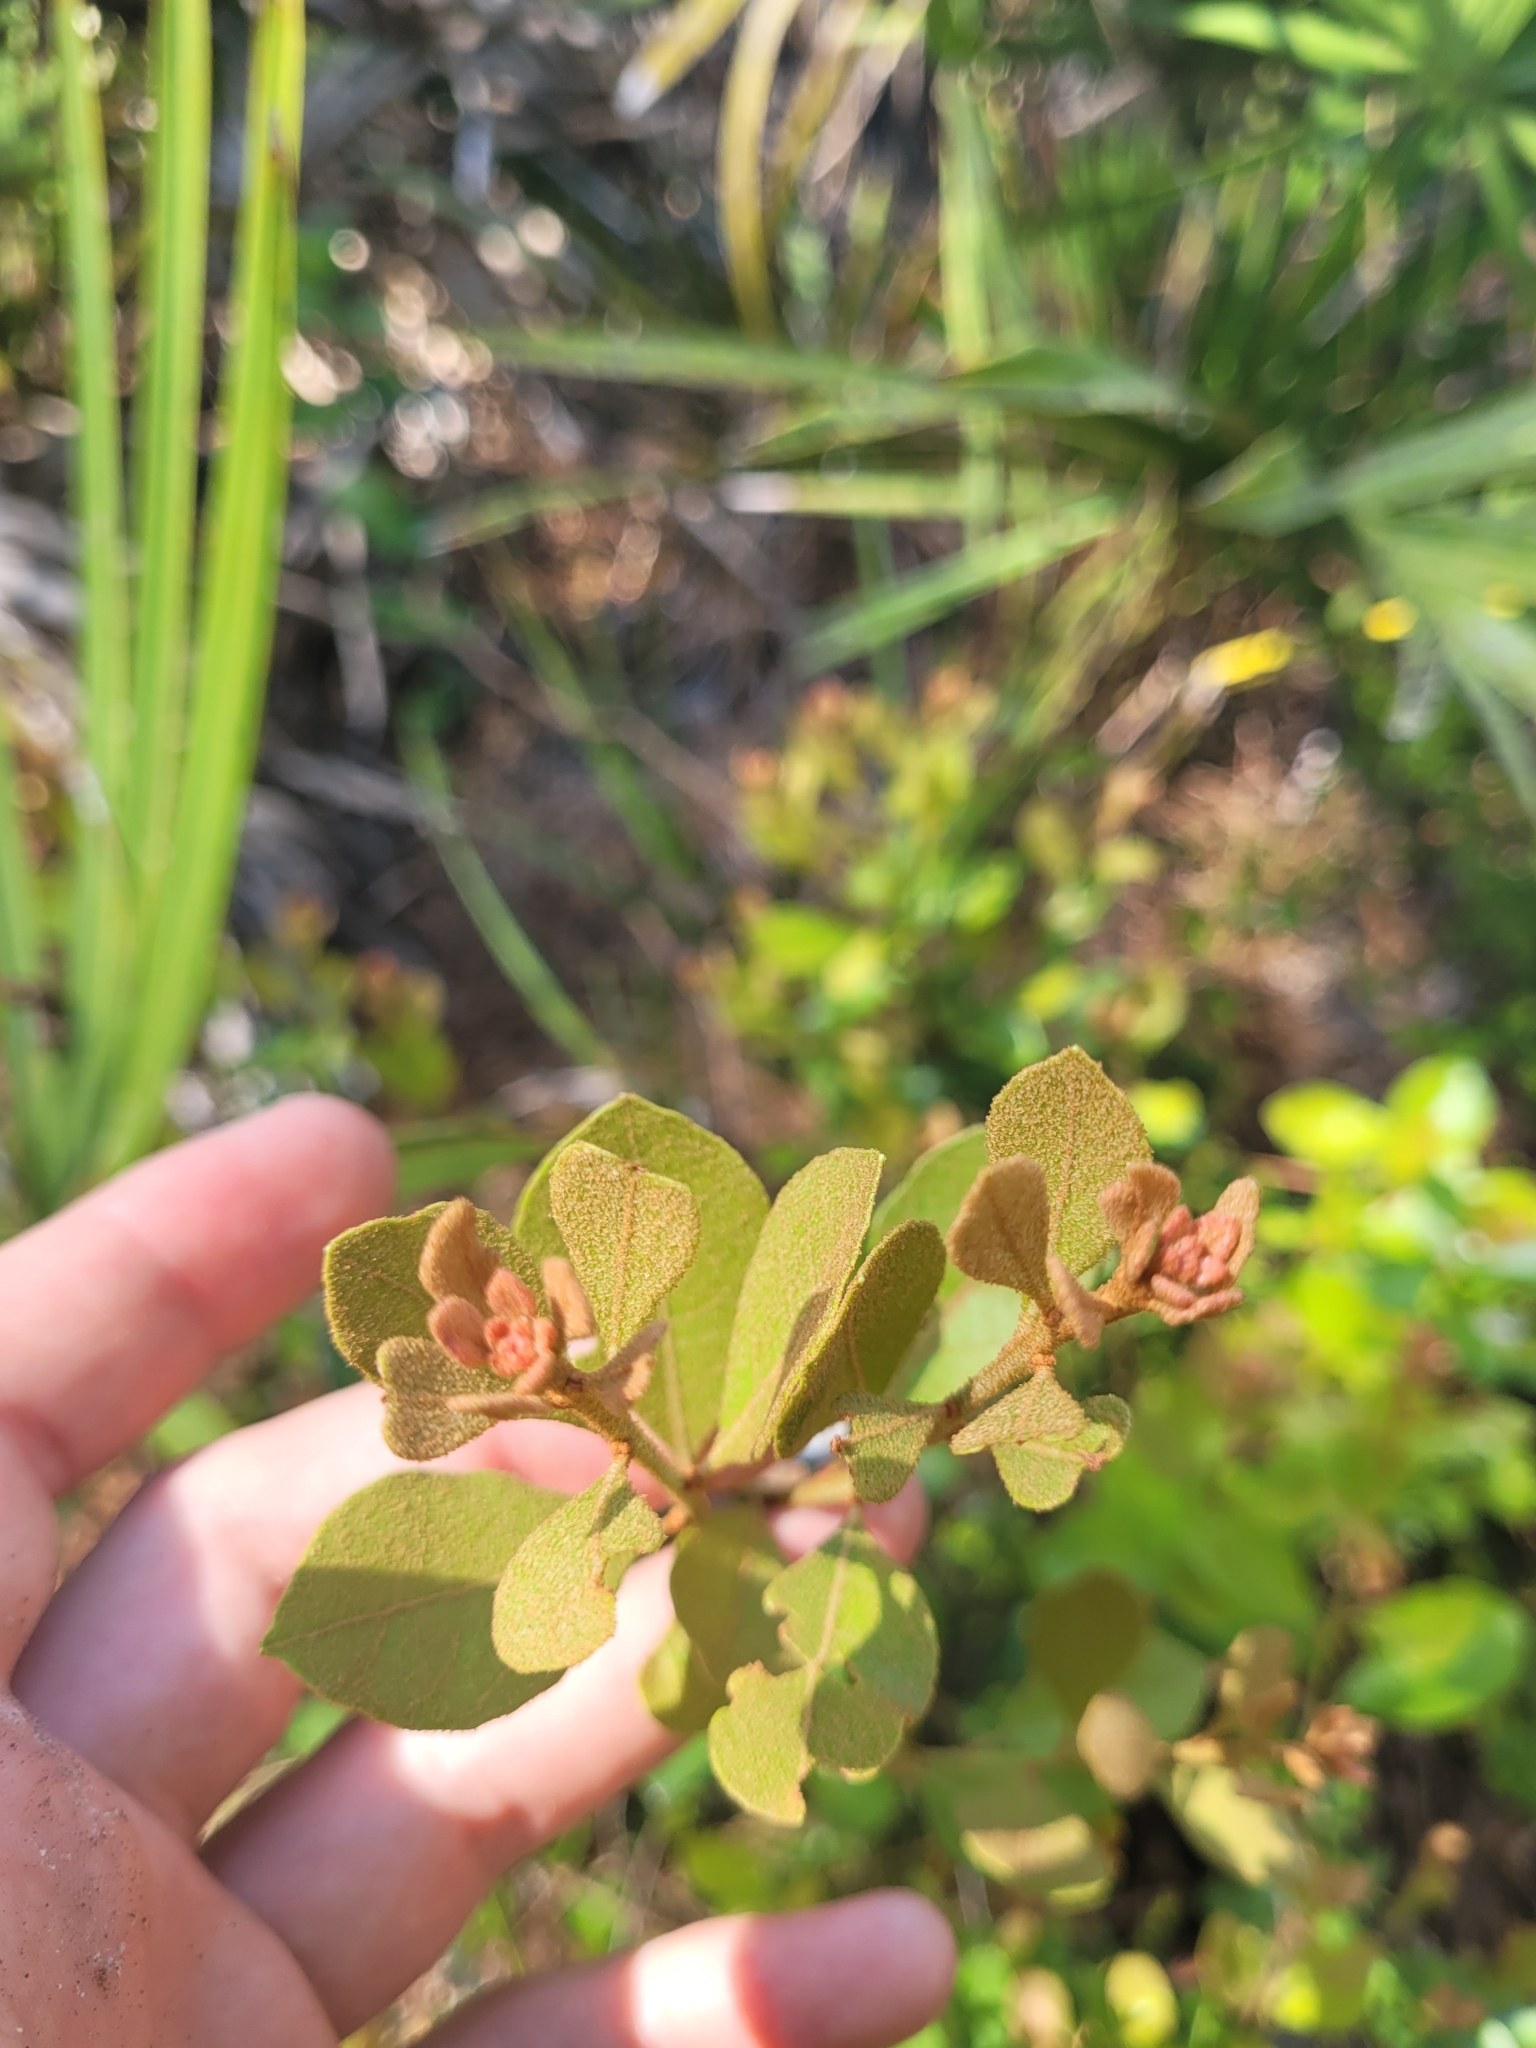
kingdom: Plantae
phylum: Tracheophyta
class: Magnoliopsida
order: Ericales
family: Ericaceae
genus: Lyonia
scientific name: Lyonia fruticosa
